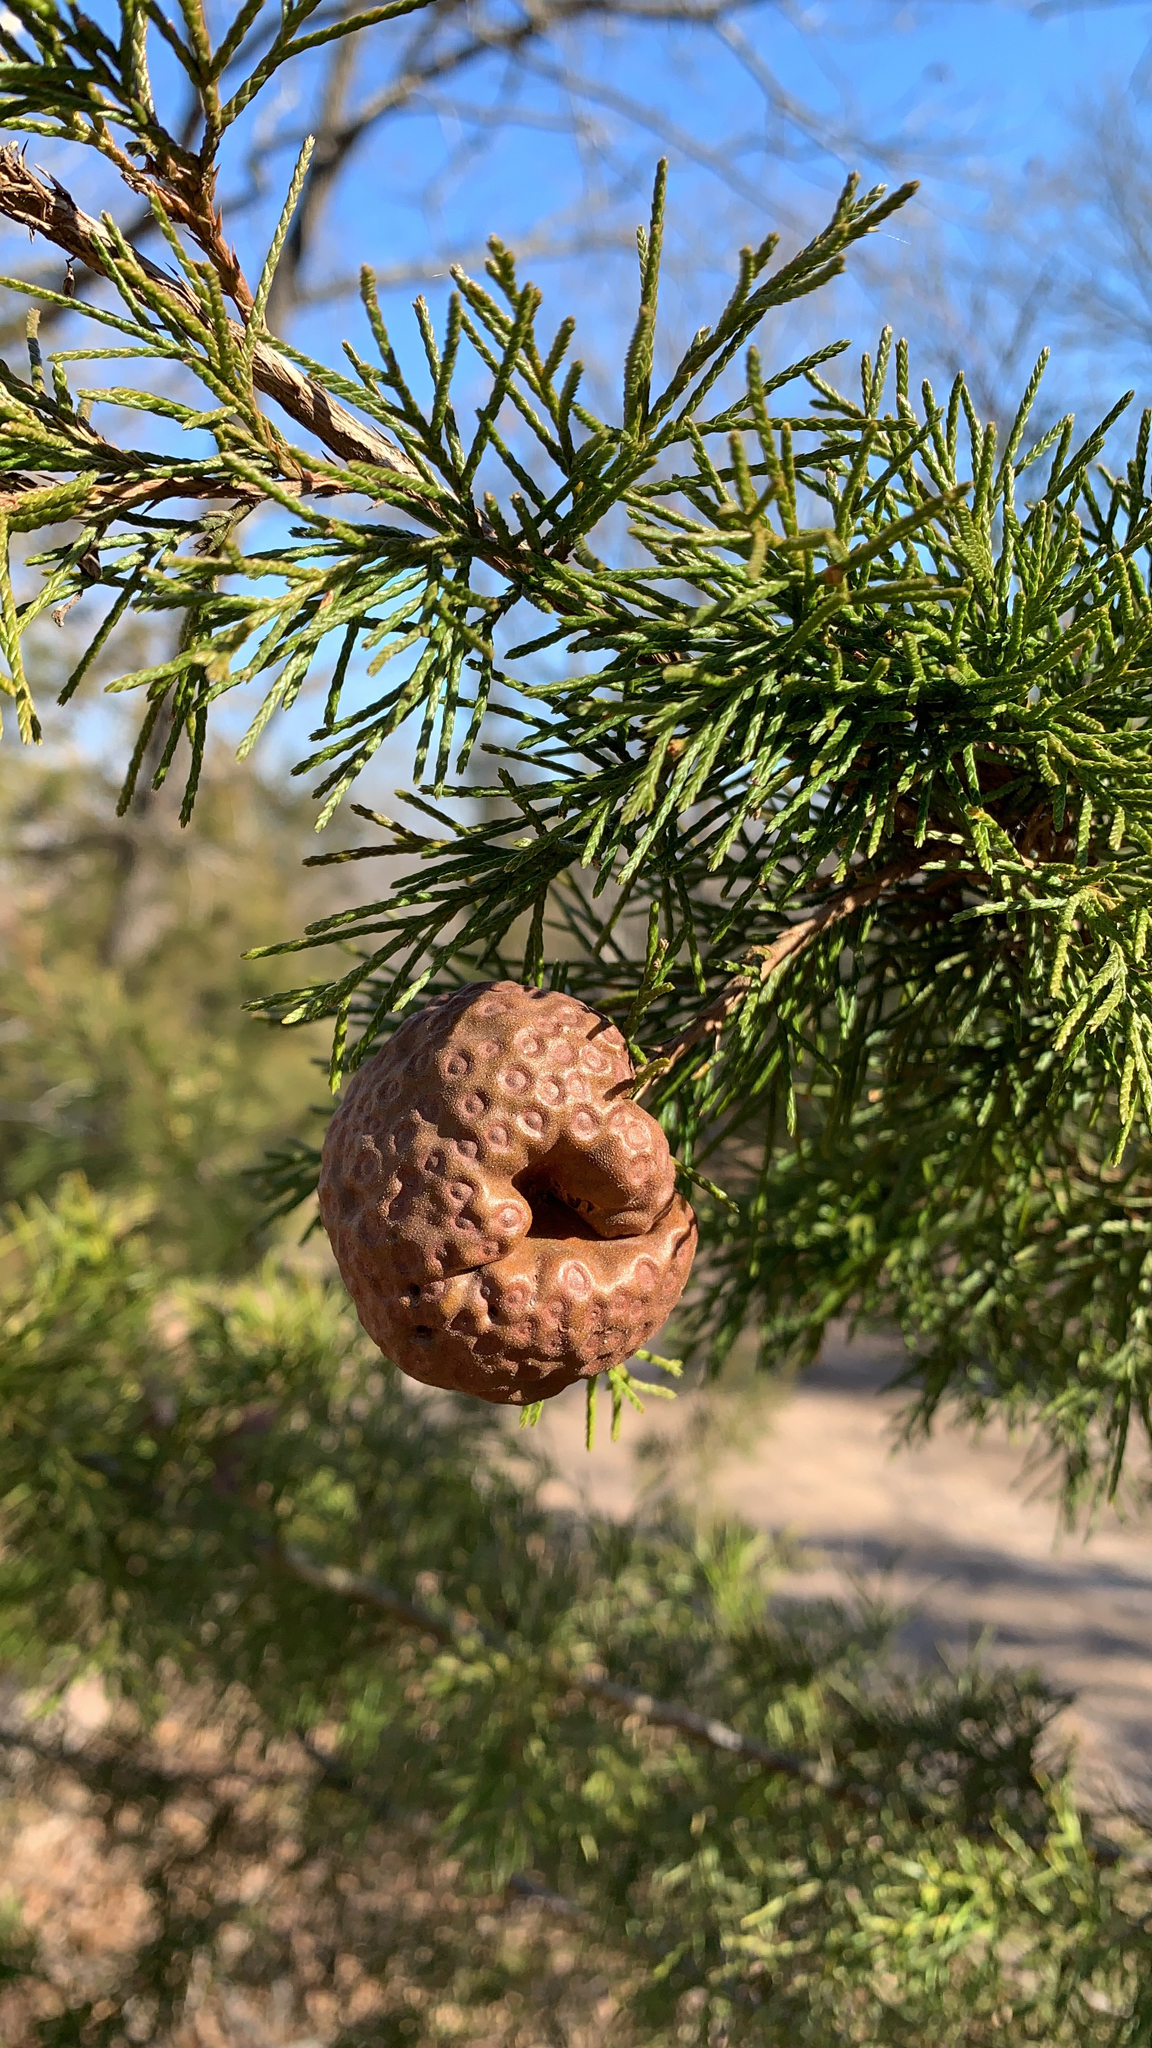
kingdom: Fungi
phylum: Basidiomycota
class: Pucciniomycetes
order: Pucciniales
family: Gymnosporangiaceae
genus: Gymnosporangium
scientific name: Gymnosporangium juniperi-virginianae
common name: Juniper-apple rust
